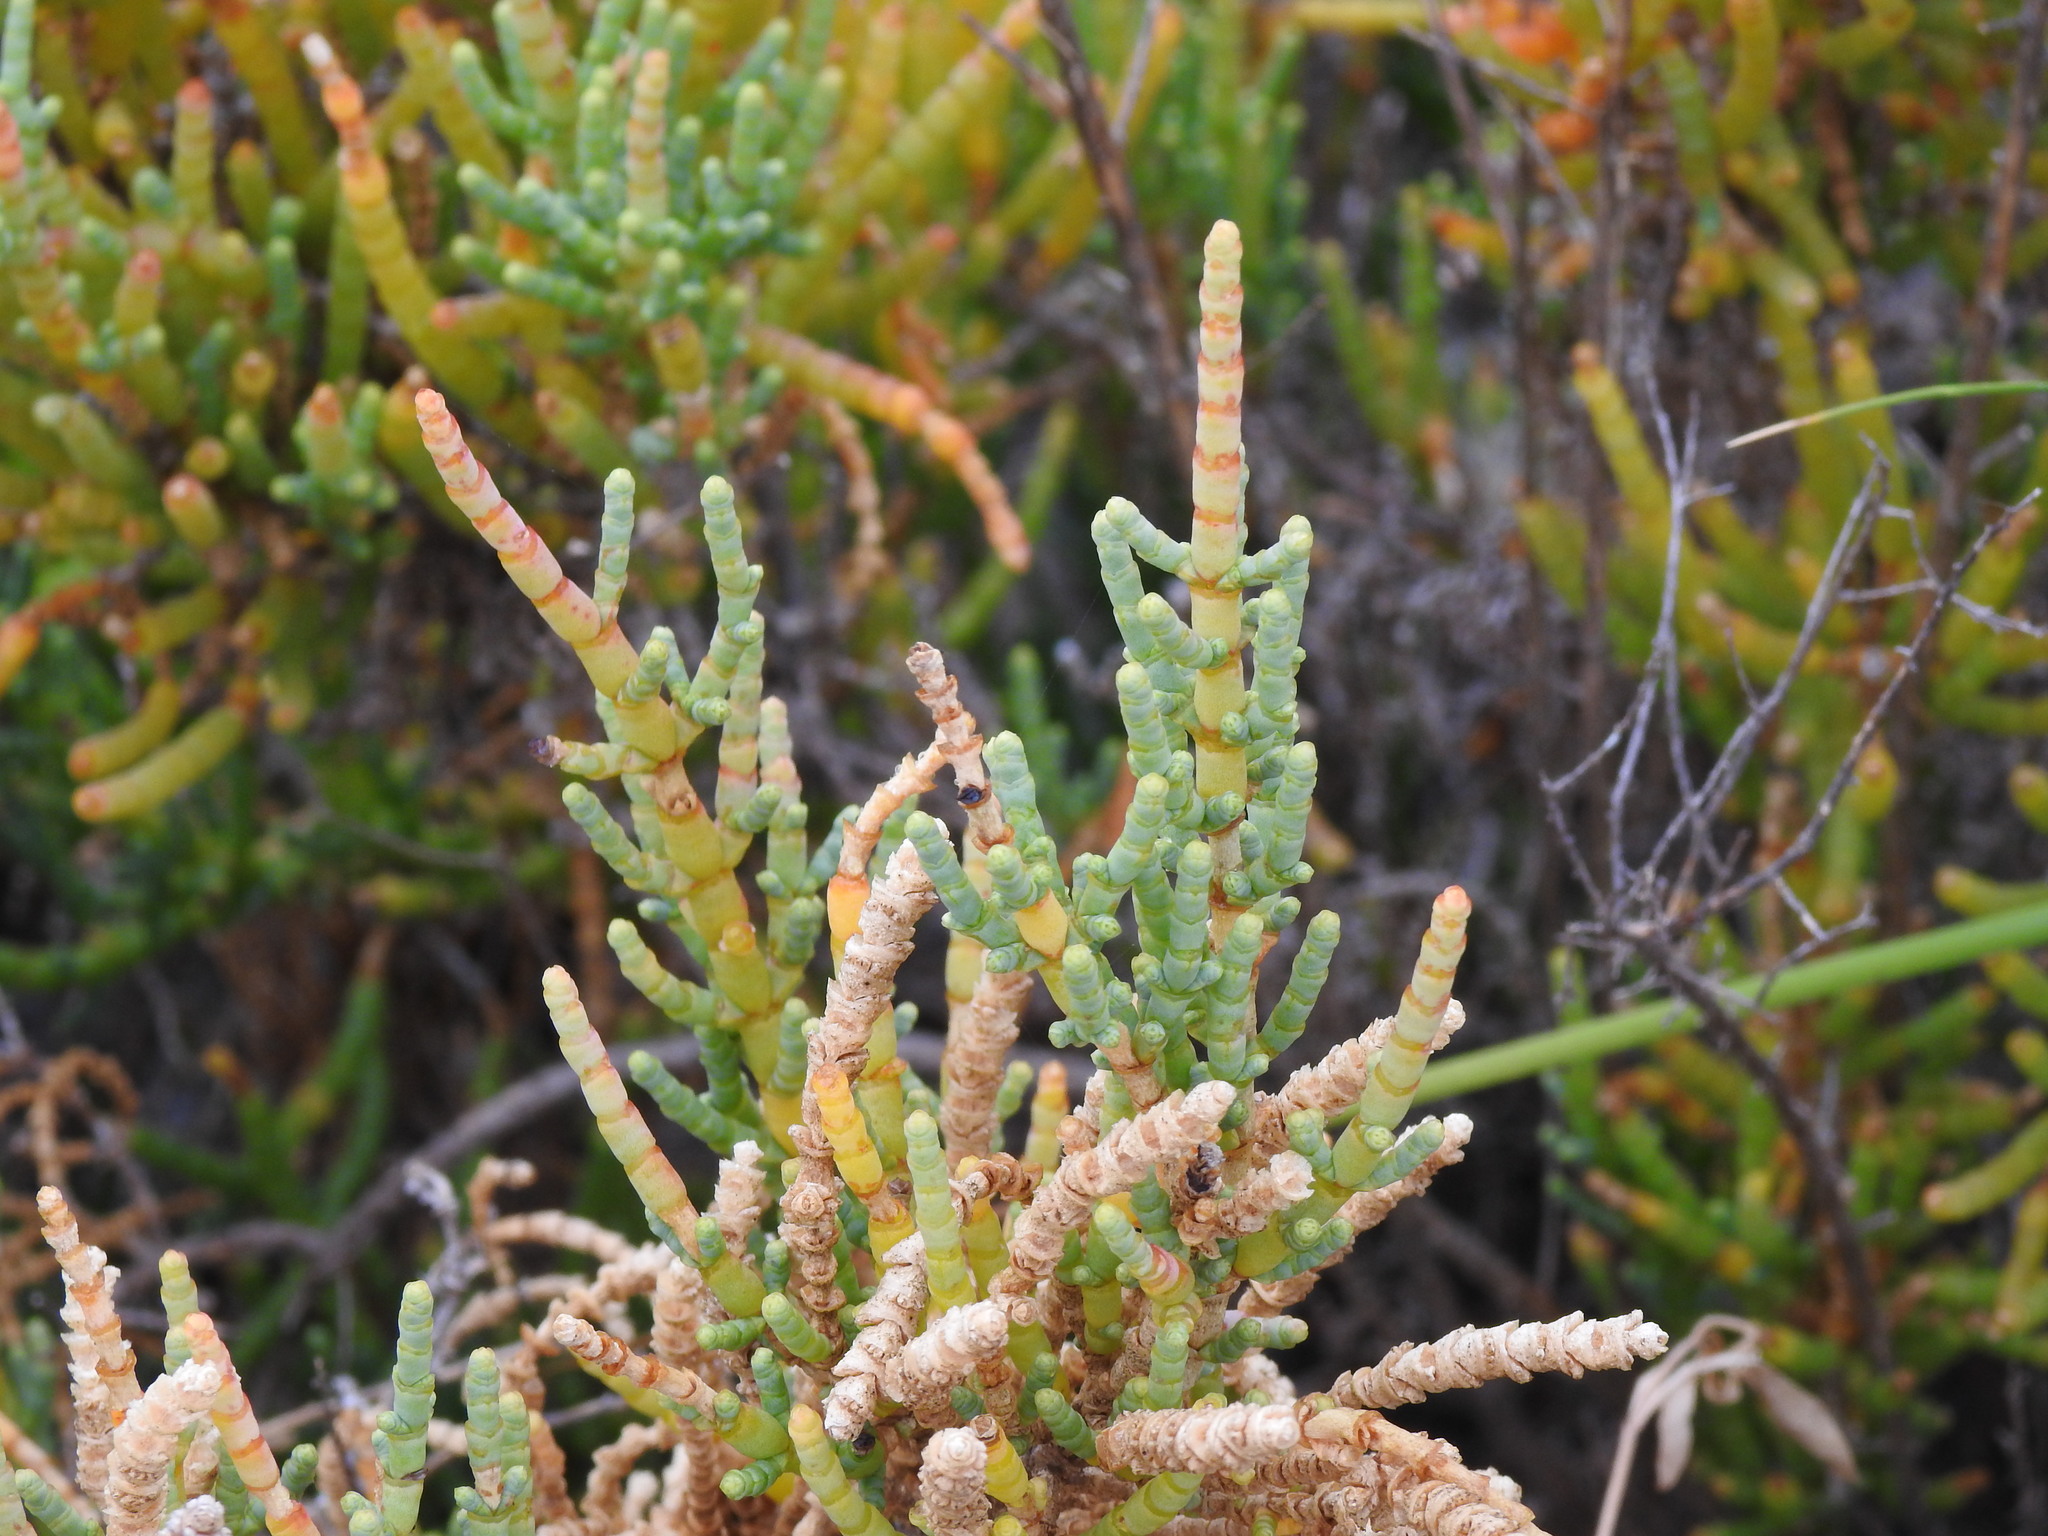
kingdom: Plantae
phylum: Tracheophyta
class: Magnoliopsida
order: Caryophyllales
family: Amaranthaceae
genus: Arthrocaulon
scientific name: Arthrocaulon macrostachyum
